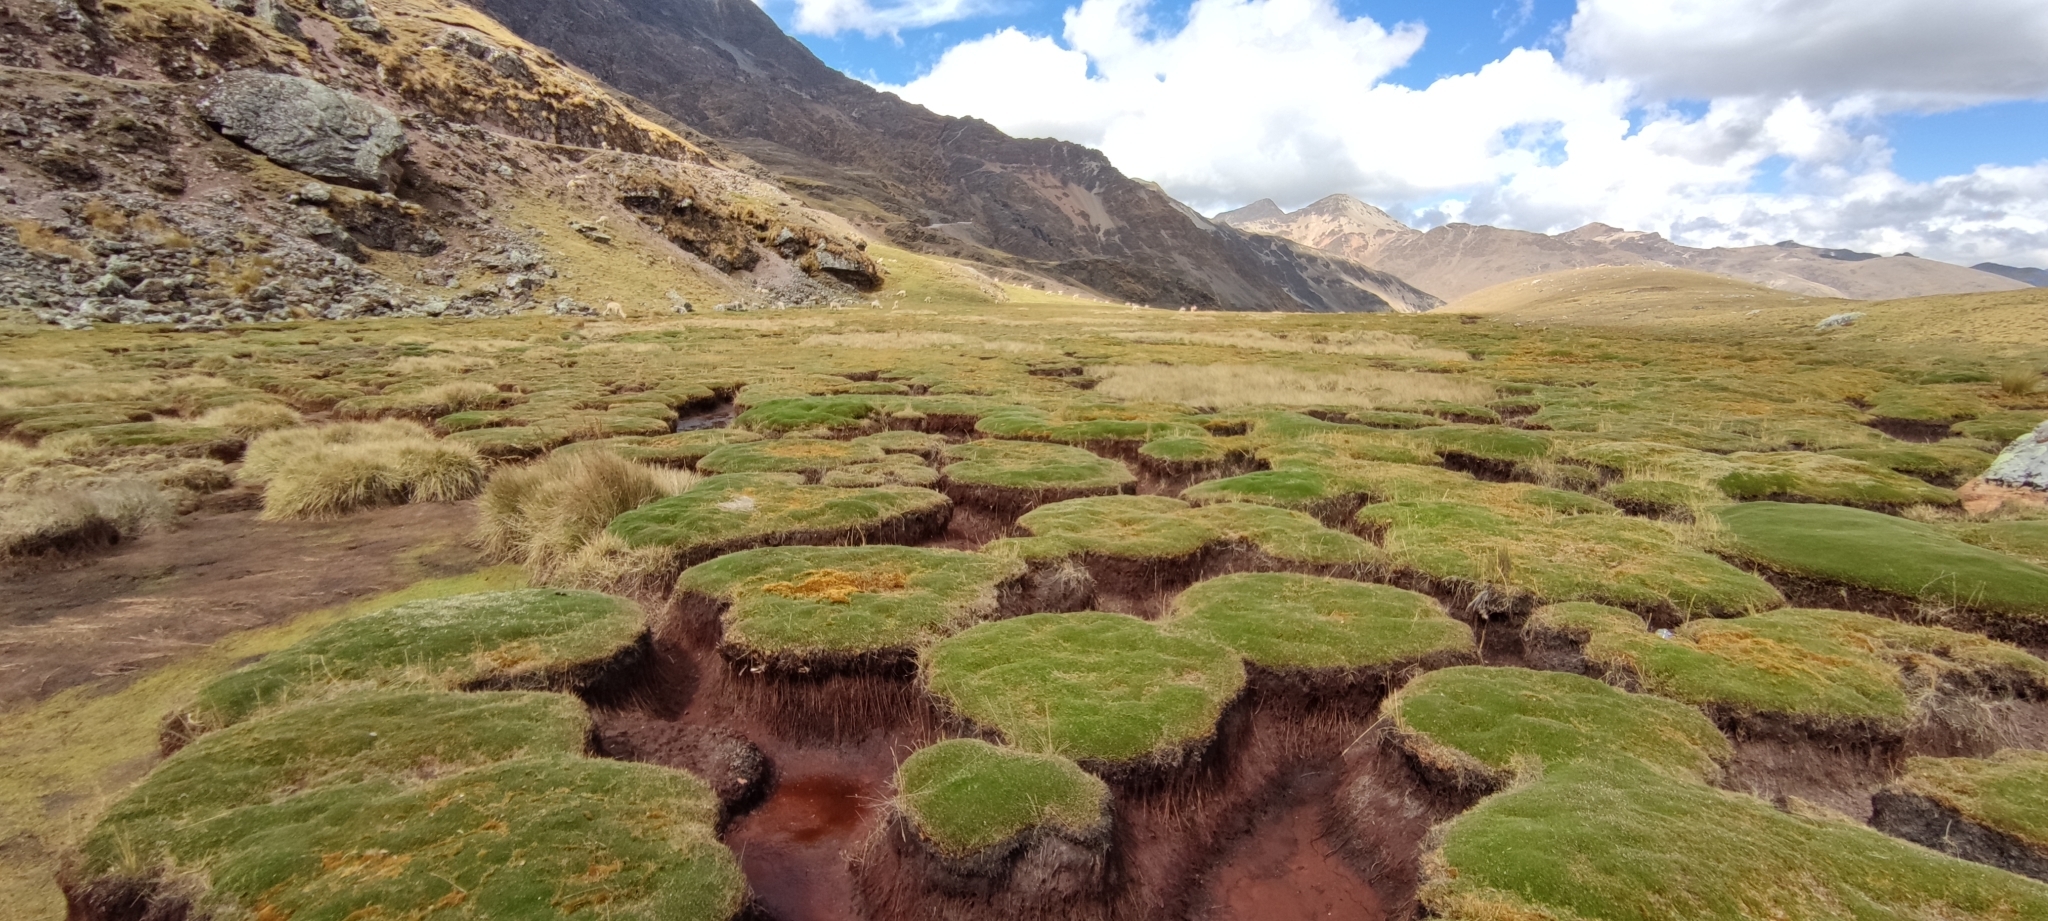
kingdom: Plantae
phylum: Tracheophyta
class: Liliopsida
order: Poales
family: Juncaceae
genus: Distichia
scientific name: Distichia muscoides
